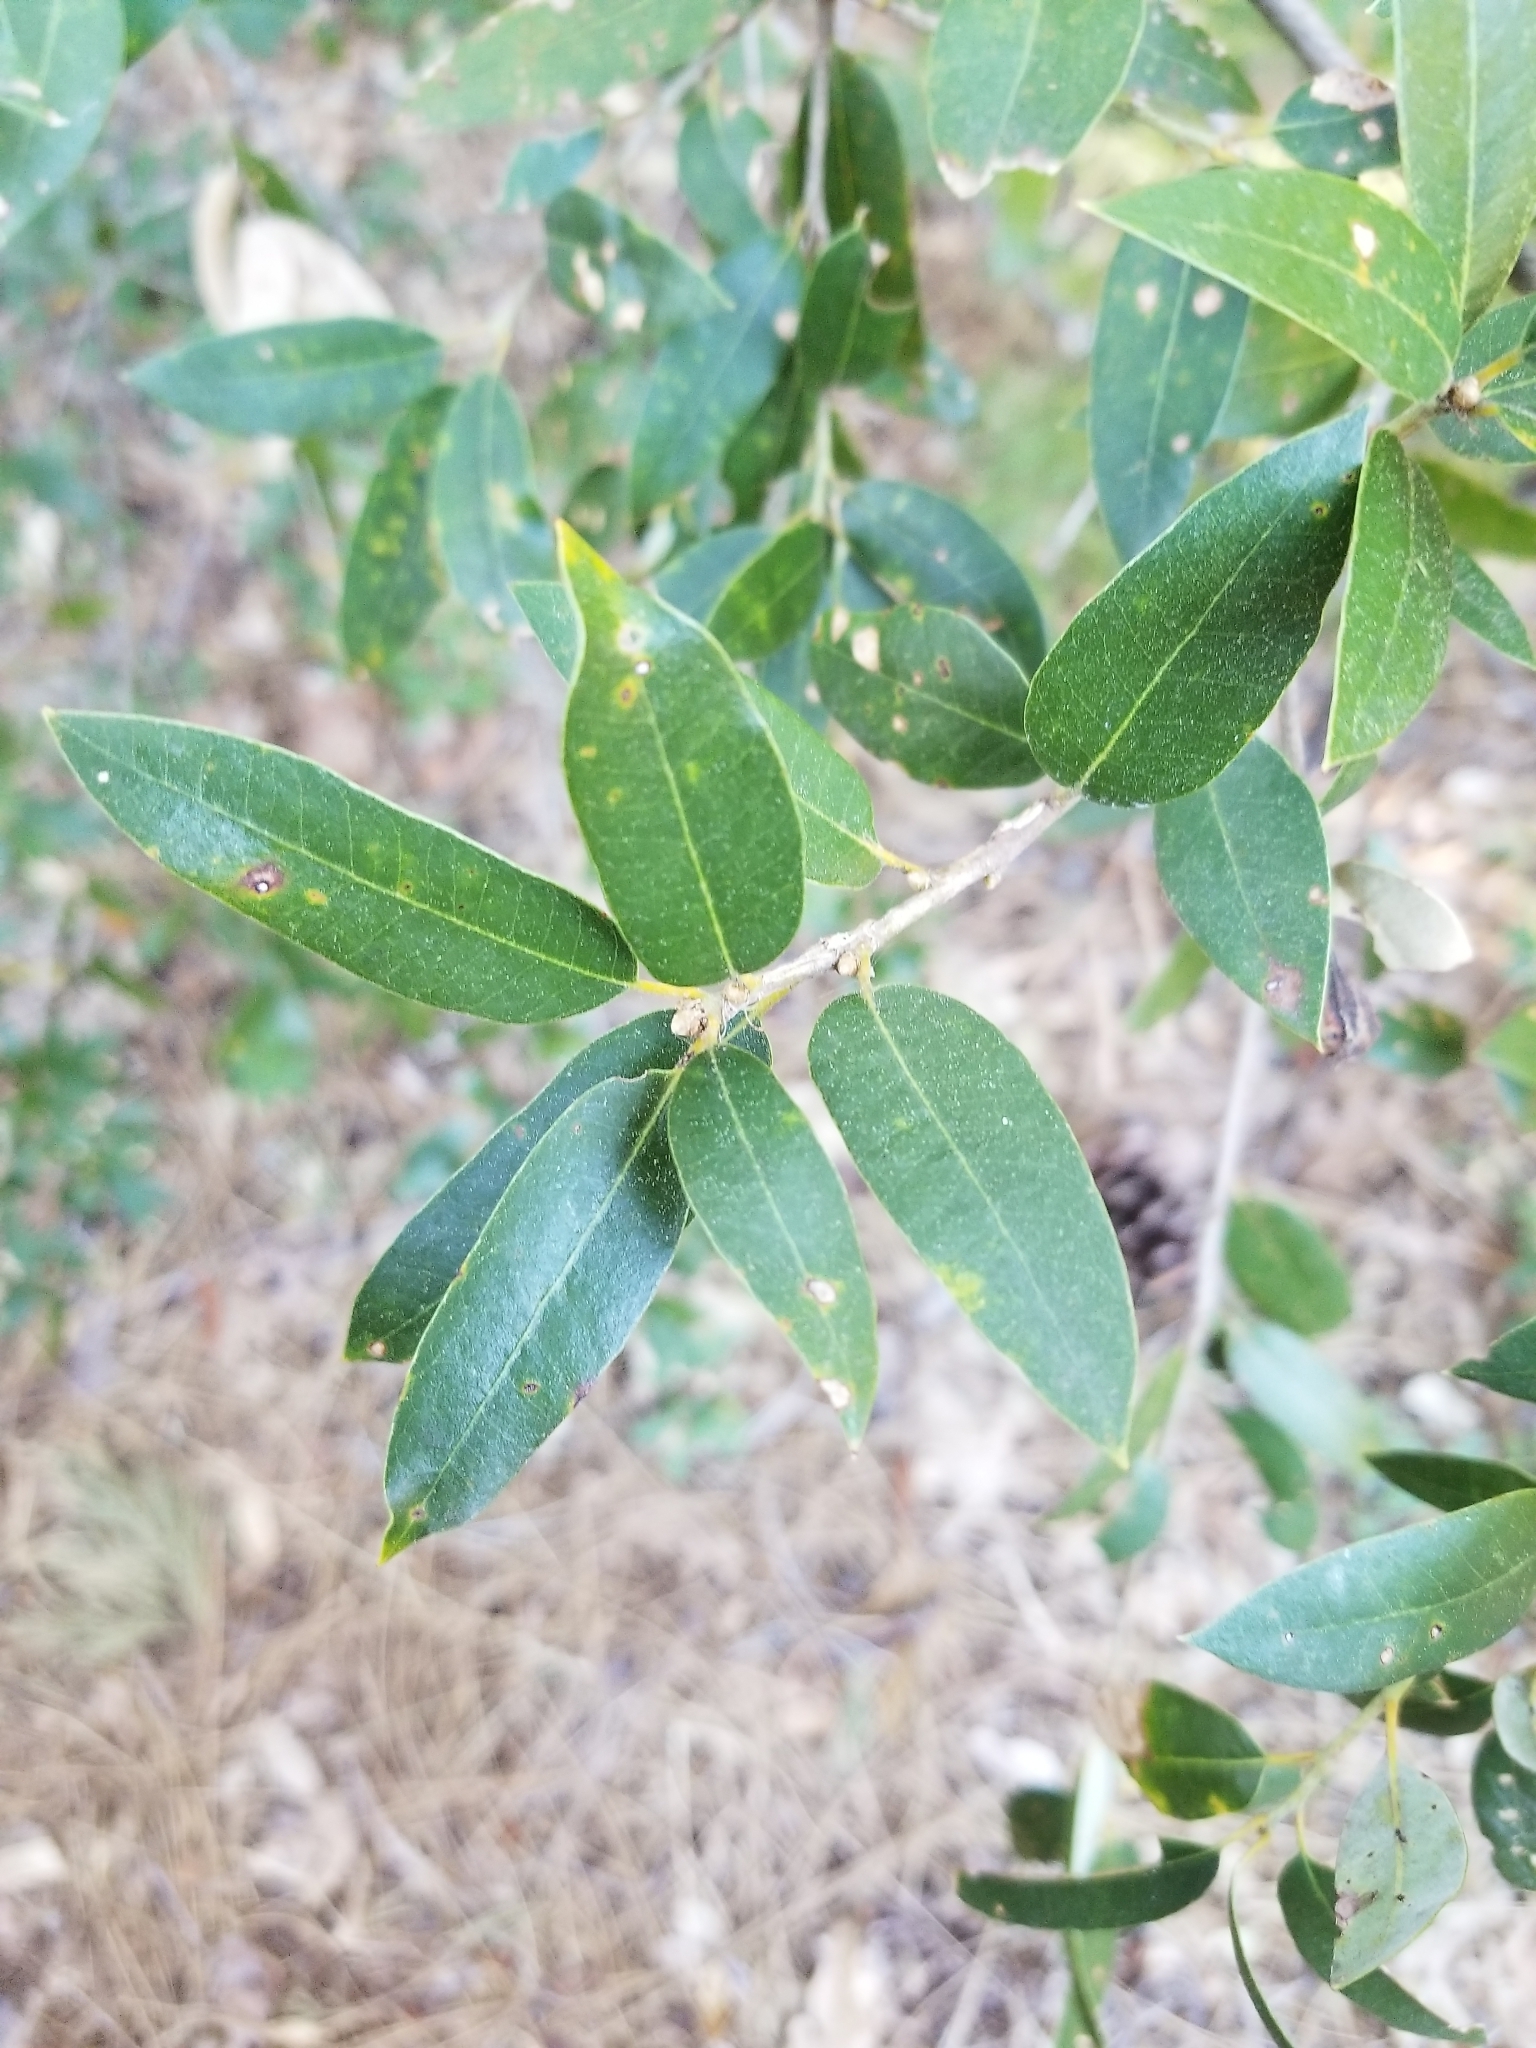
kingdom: Plantae
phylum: Tracheophyta
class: Magnoliopsida
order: Fagales
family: Fagaceae
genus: Quercus
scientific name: Quercus chrysolepis
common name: Canyon live oak
